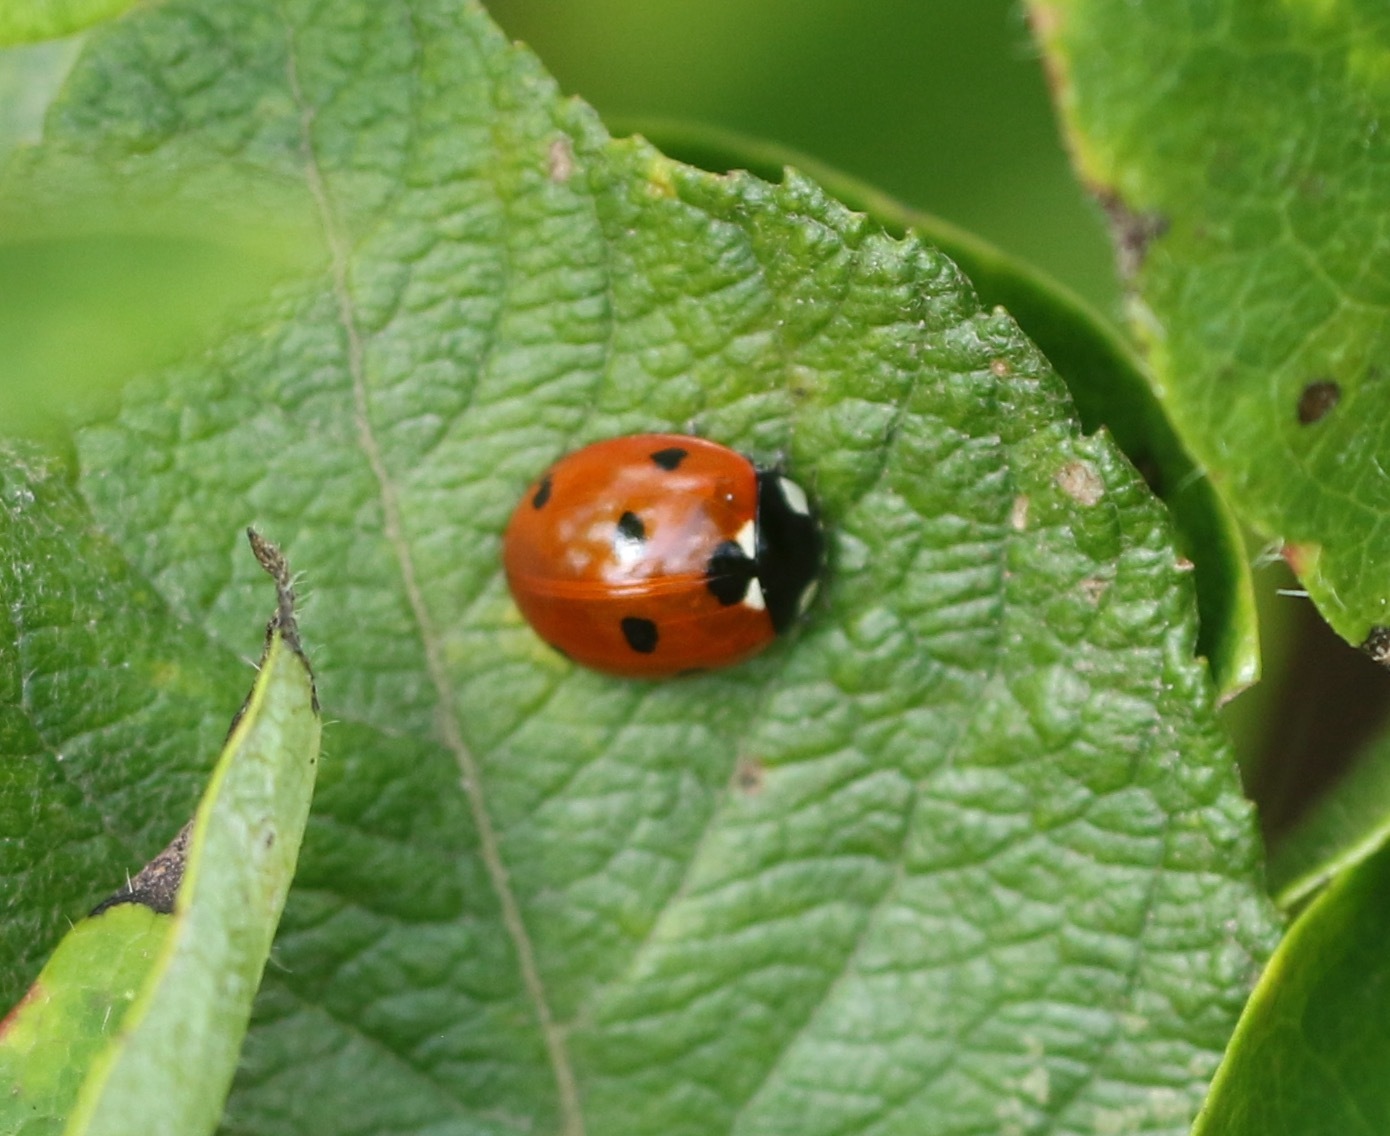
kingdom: Animalia
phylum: Arthropoda
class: Insecta
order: Coleoptera
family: Coccinellidae
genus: Coccinella
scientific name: Coccinella septempunctata
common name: Sevenspotted lady beetle
